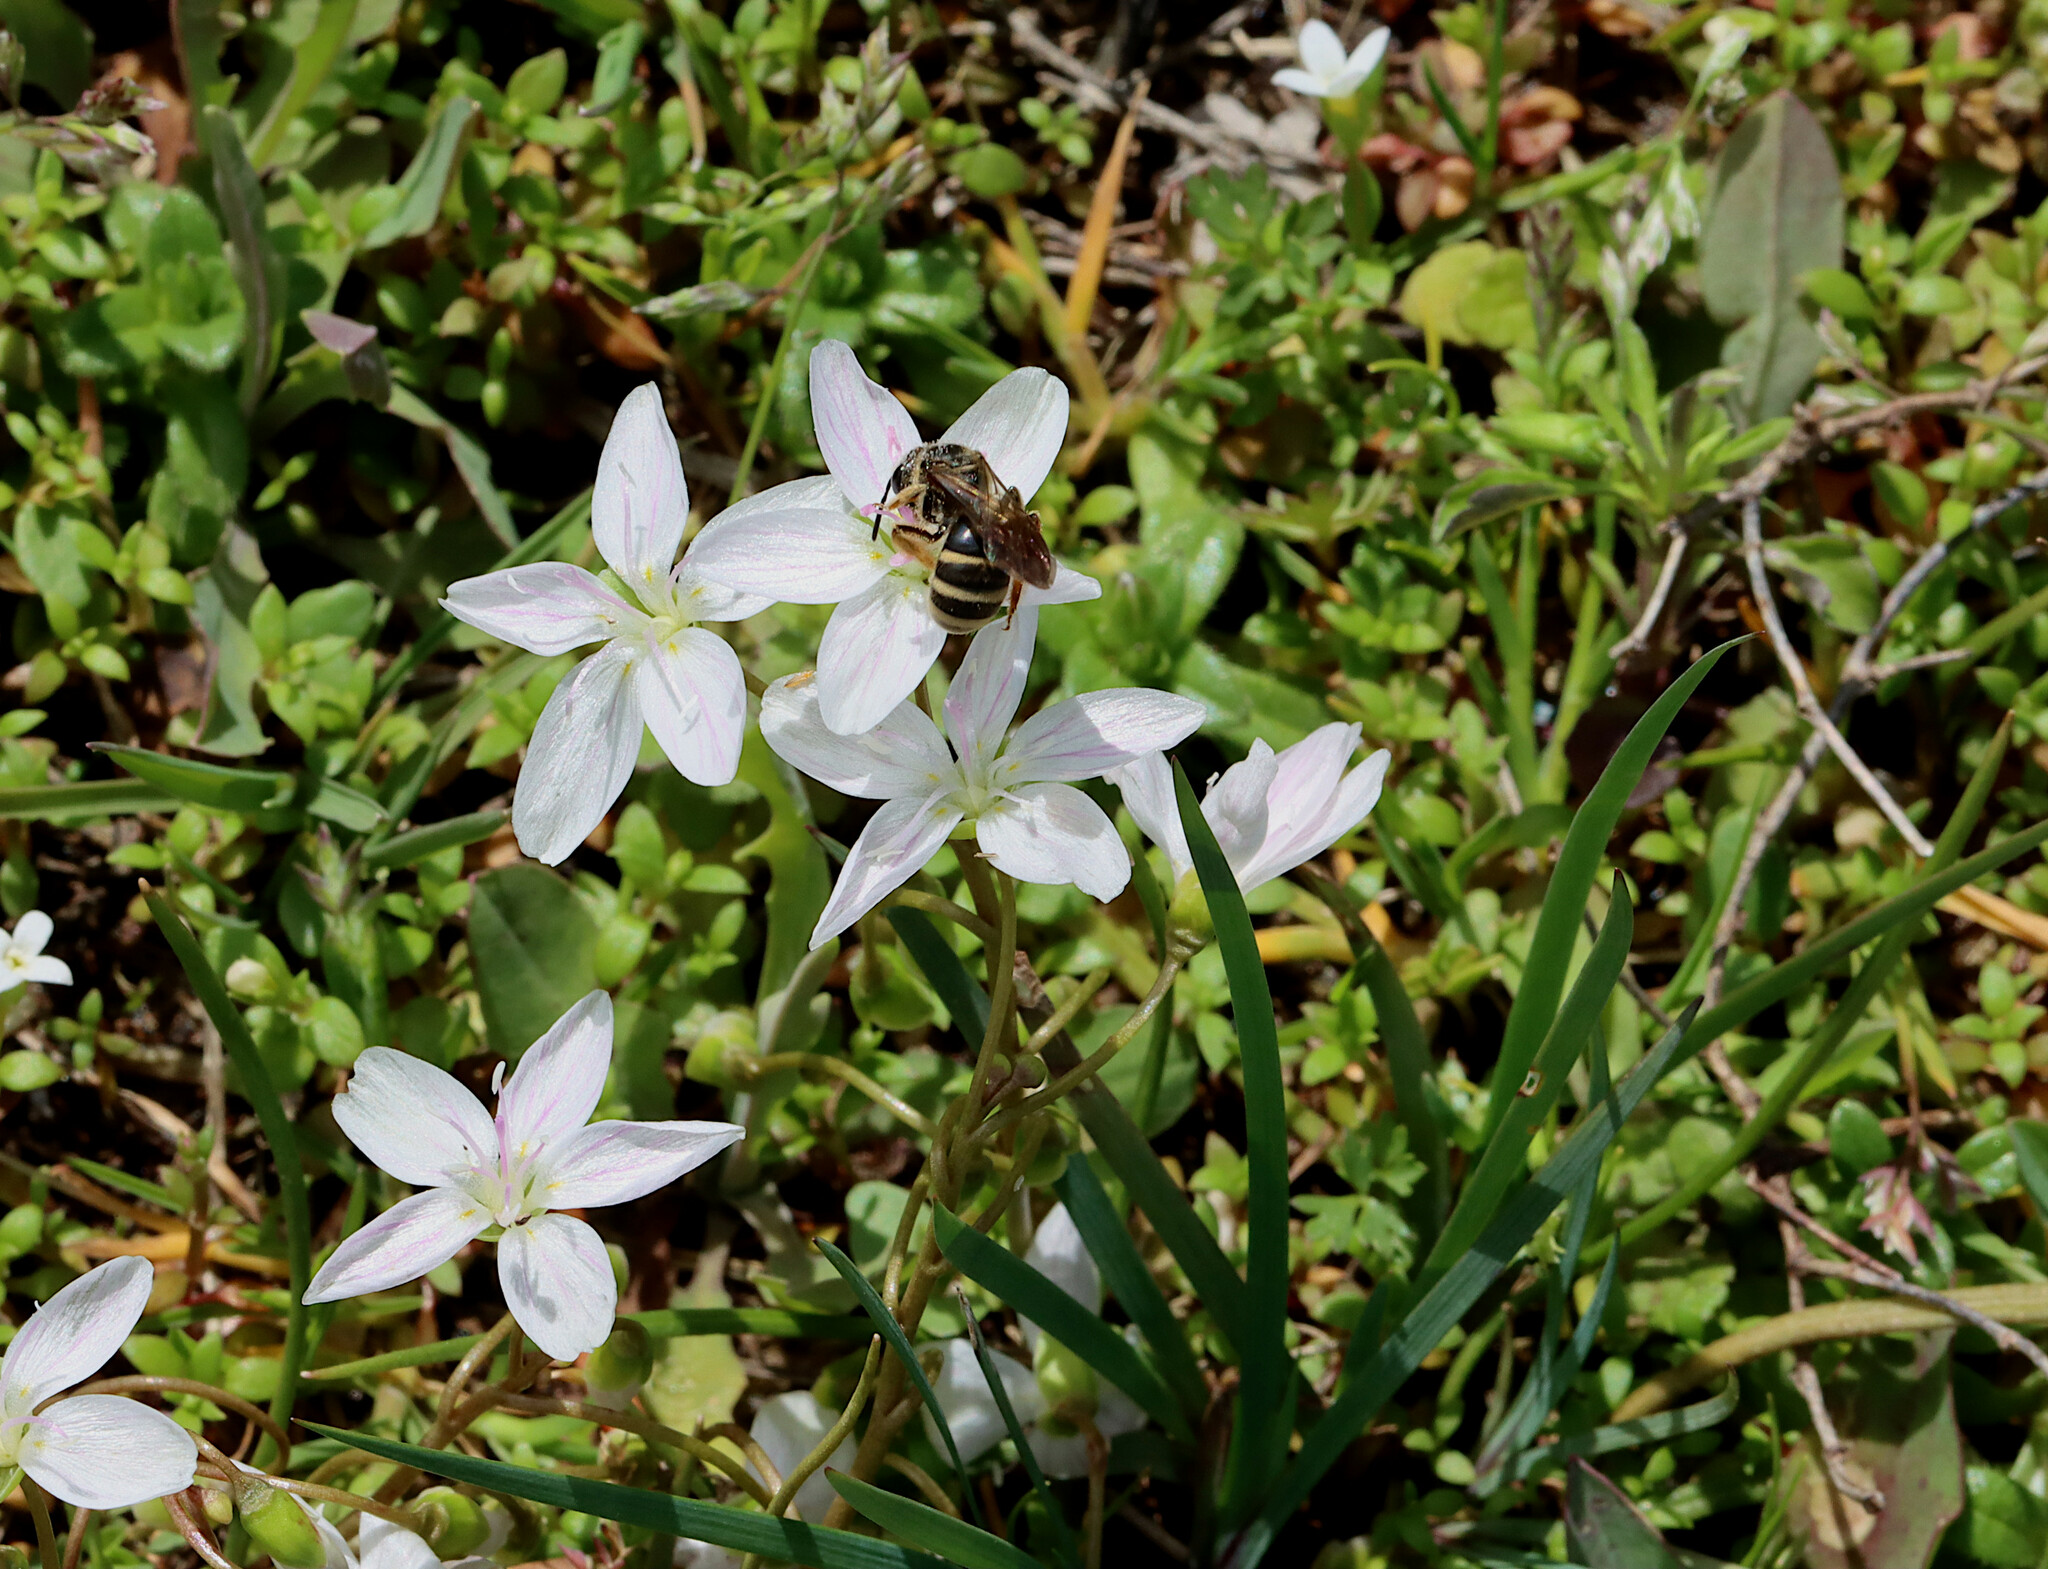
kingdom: Plantae
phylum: Tracheophyta
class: Magnoliopsida
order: Caryophyllales
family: Montiaceae
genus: Claytonia
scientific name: Claytonia virginica
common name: Virginia springbeauty
